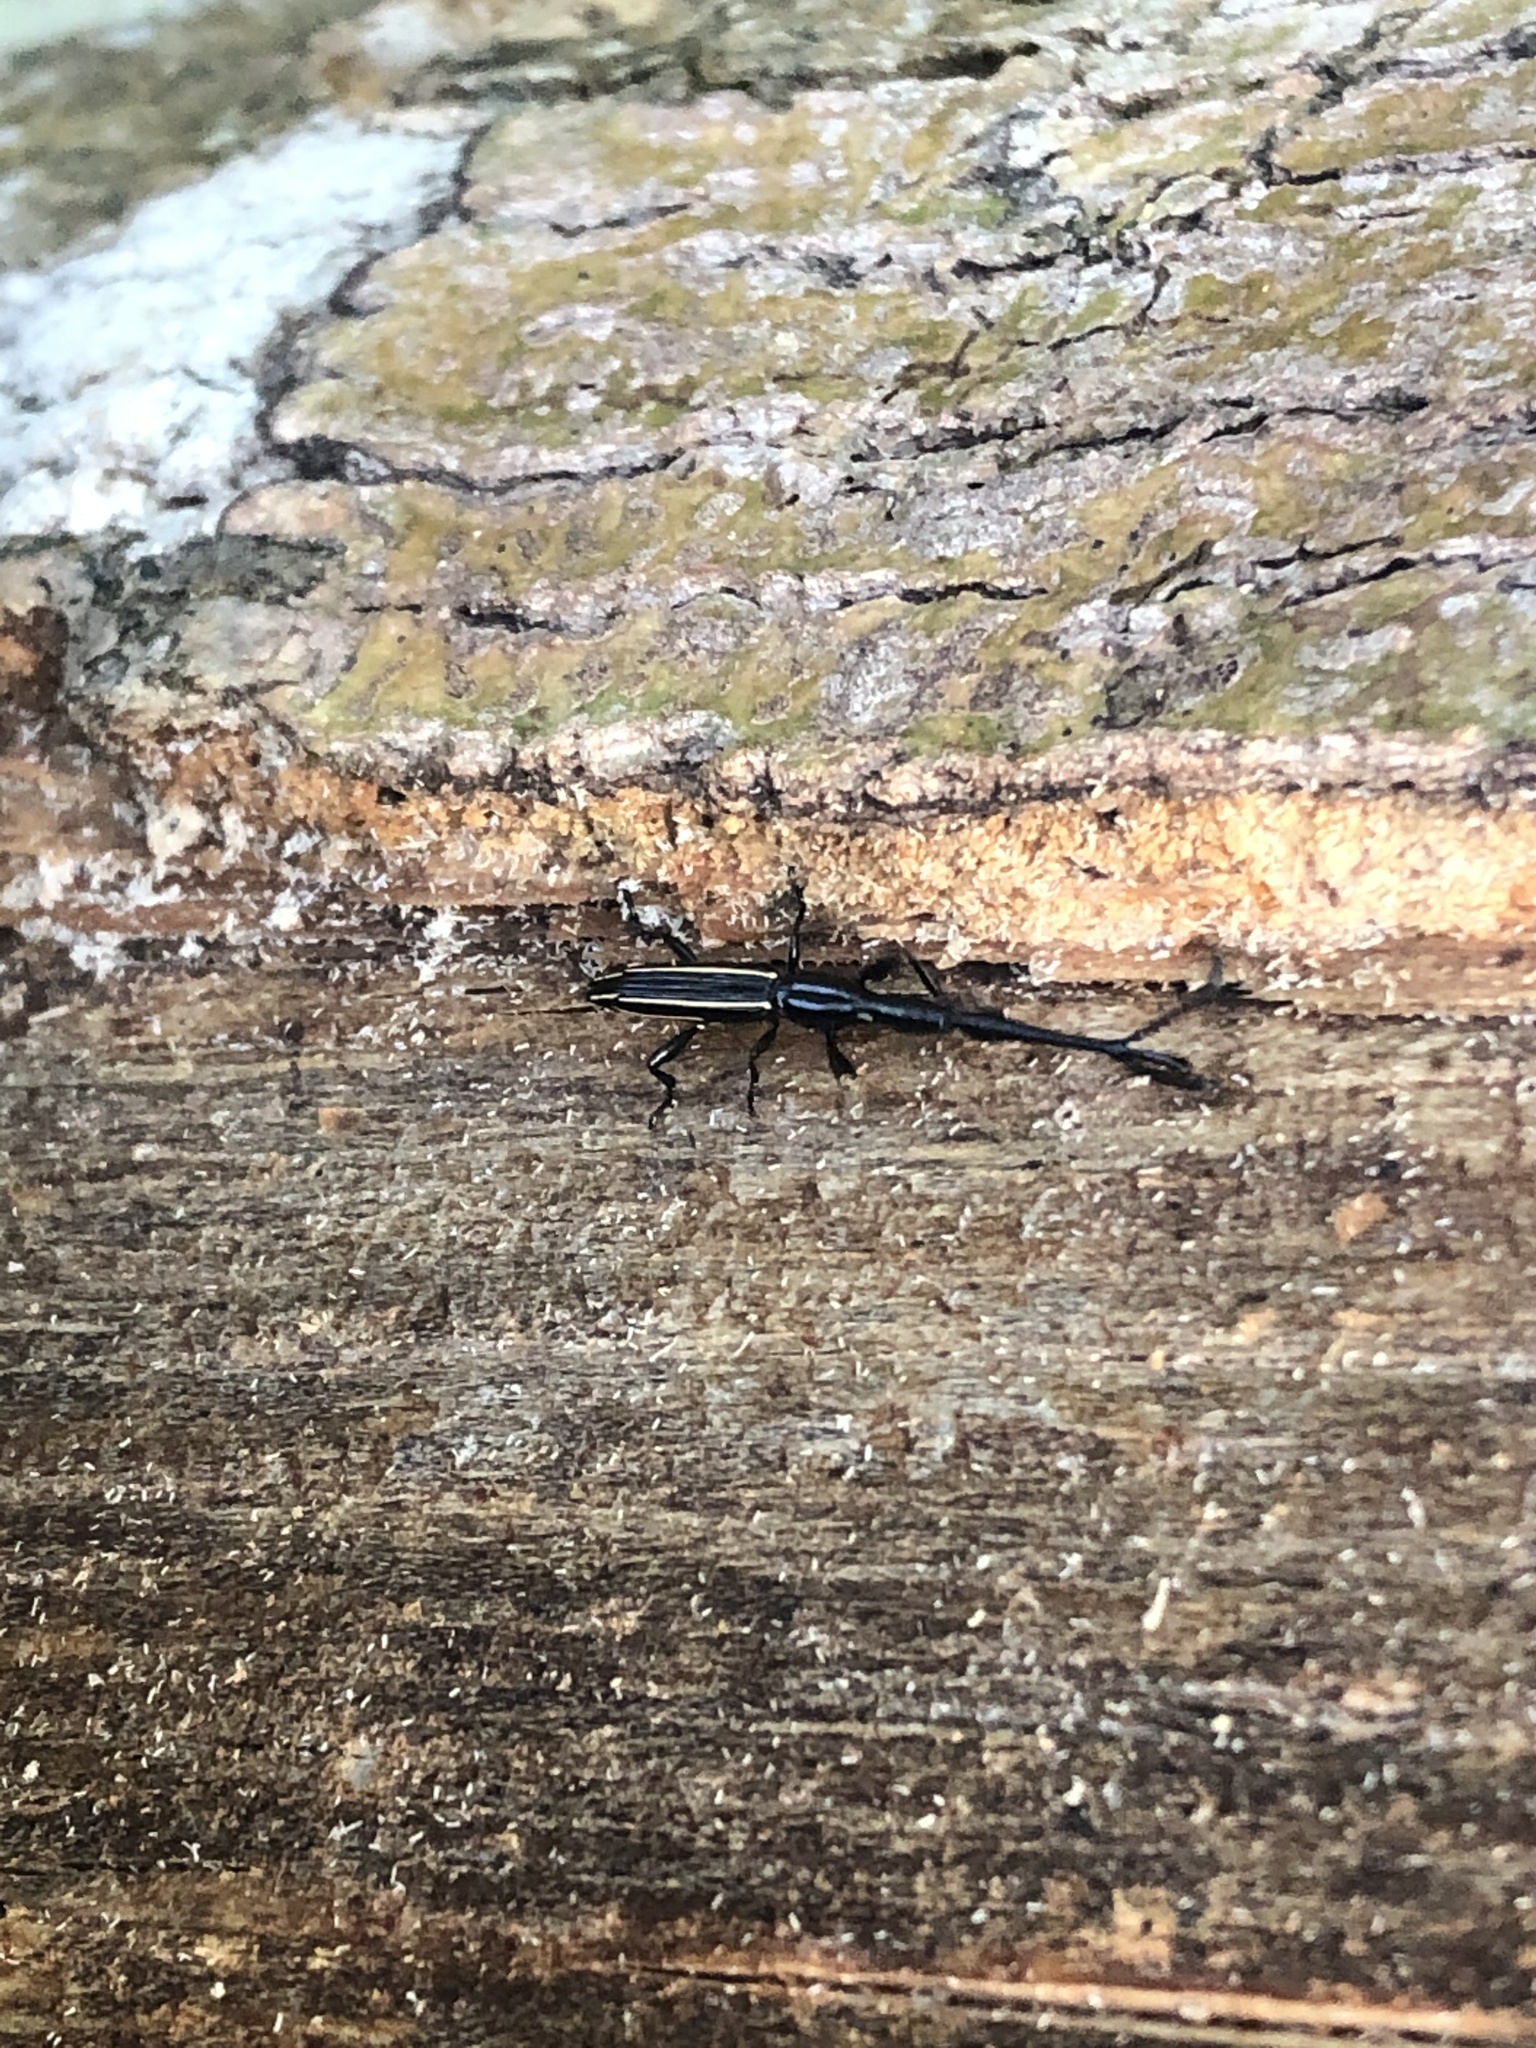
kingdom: Animalia
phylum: Arthropoda
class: Insecta
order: Coleoptera
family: Brentidae
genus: Brentus
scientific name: Brentus anchorago
